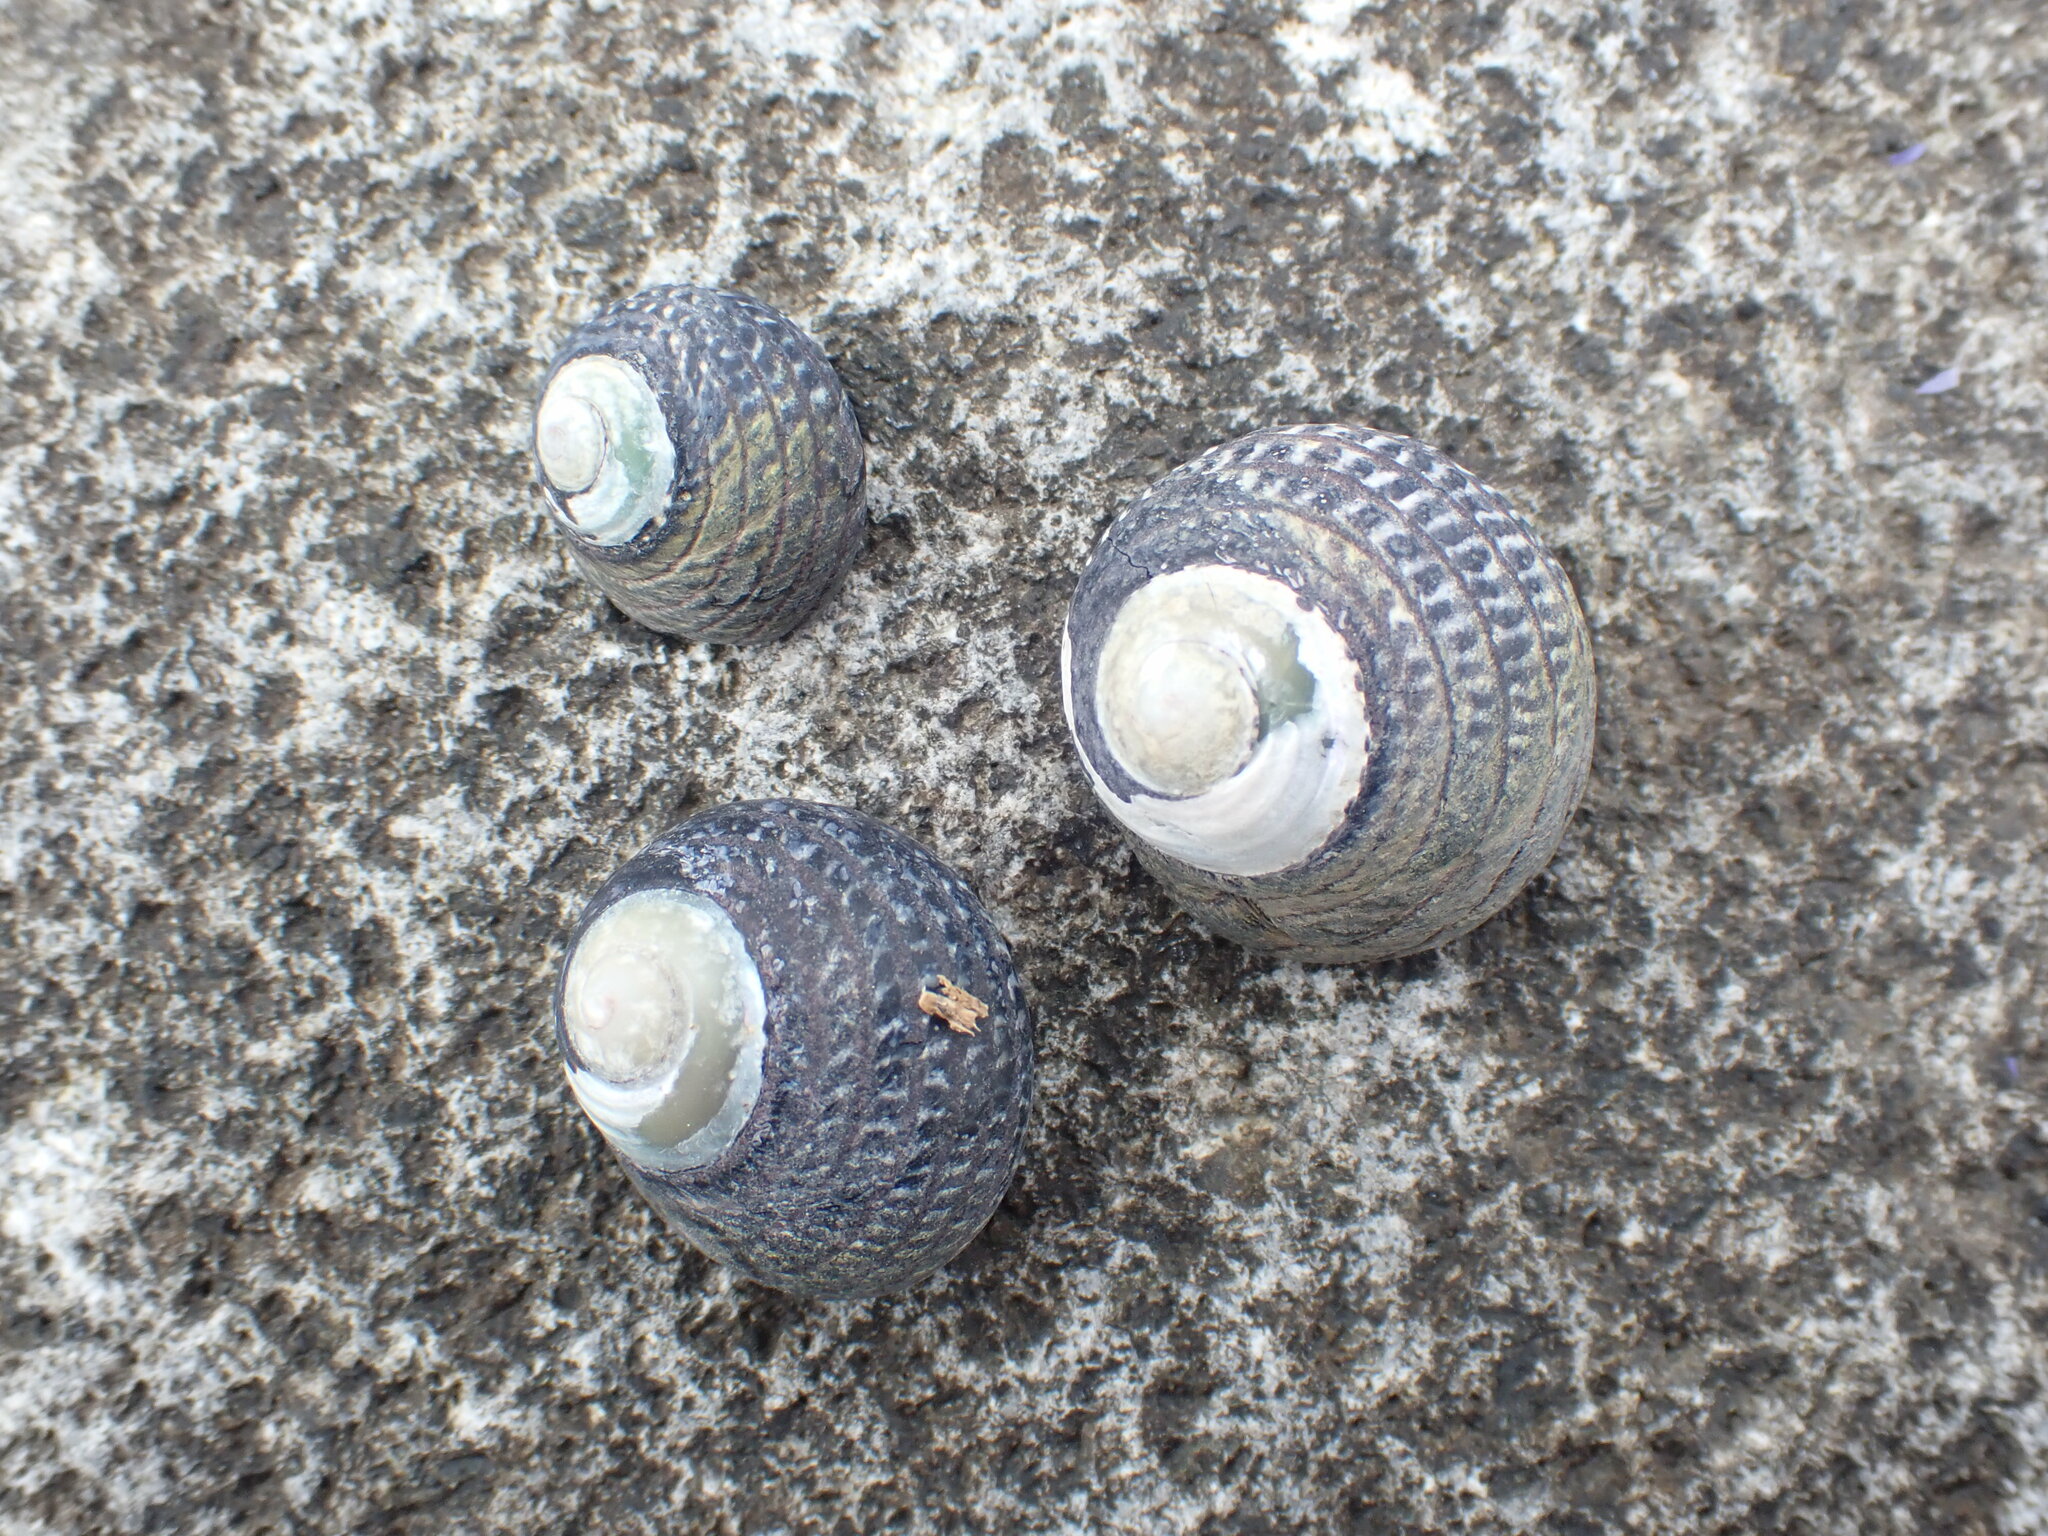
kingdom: Animalia
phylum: Mollusca
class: Gastropoda
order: Trochida
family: Trochidae
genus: Diloma
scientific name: Diloma aethiops
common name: Scorched monodont
